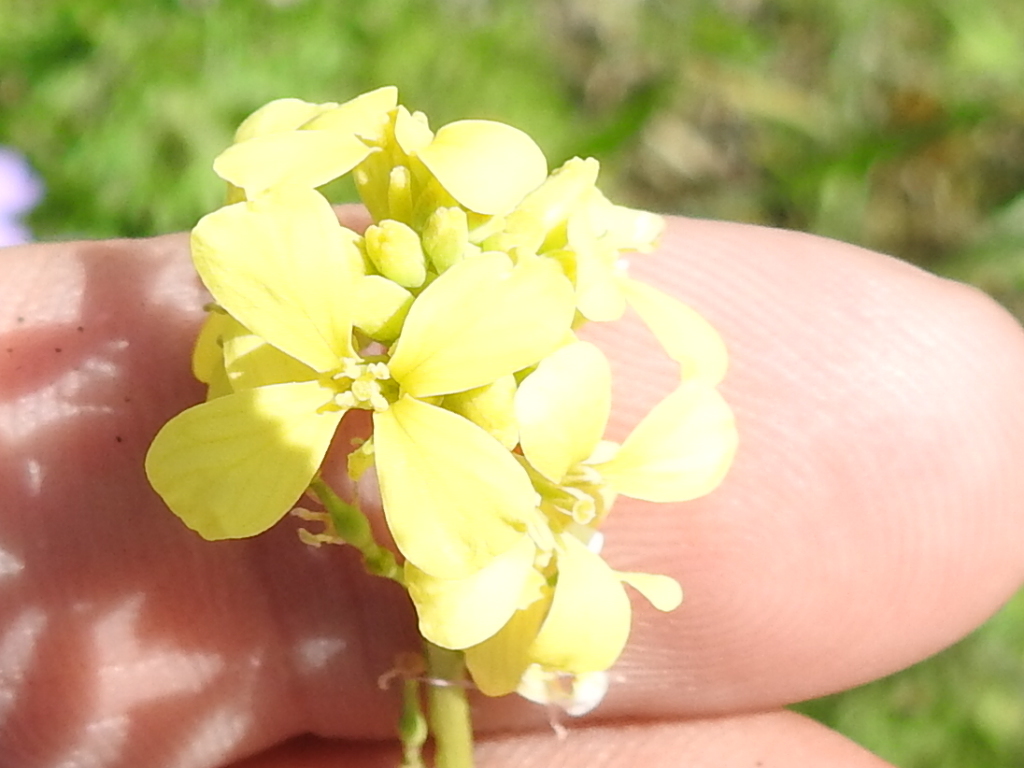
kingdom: Plantae
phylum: Tracheophyta
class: Magnoliopsida
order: Brassicales
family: Brassicaceae
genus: Rapistrum
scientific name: Rapistrum rugosum
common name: Annual bastardcabbage
